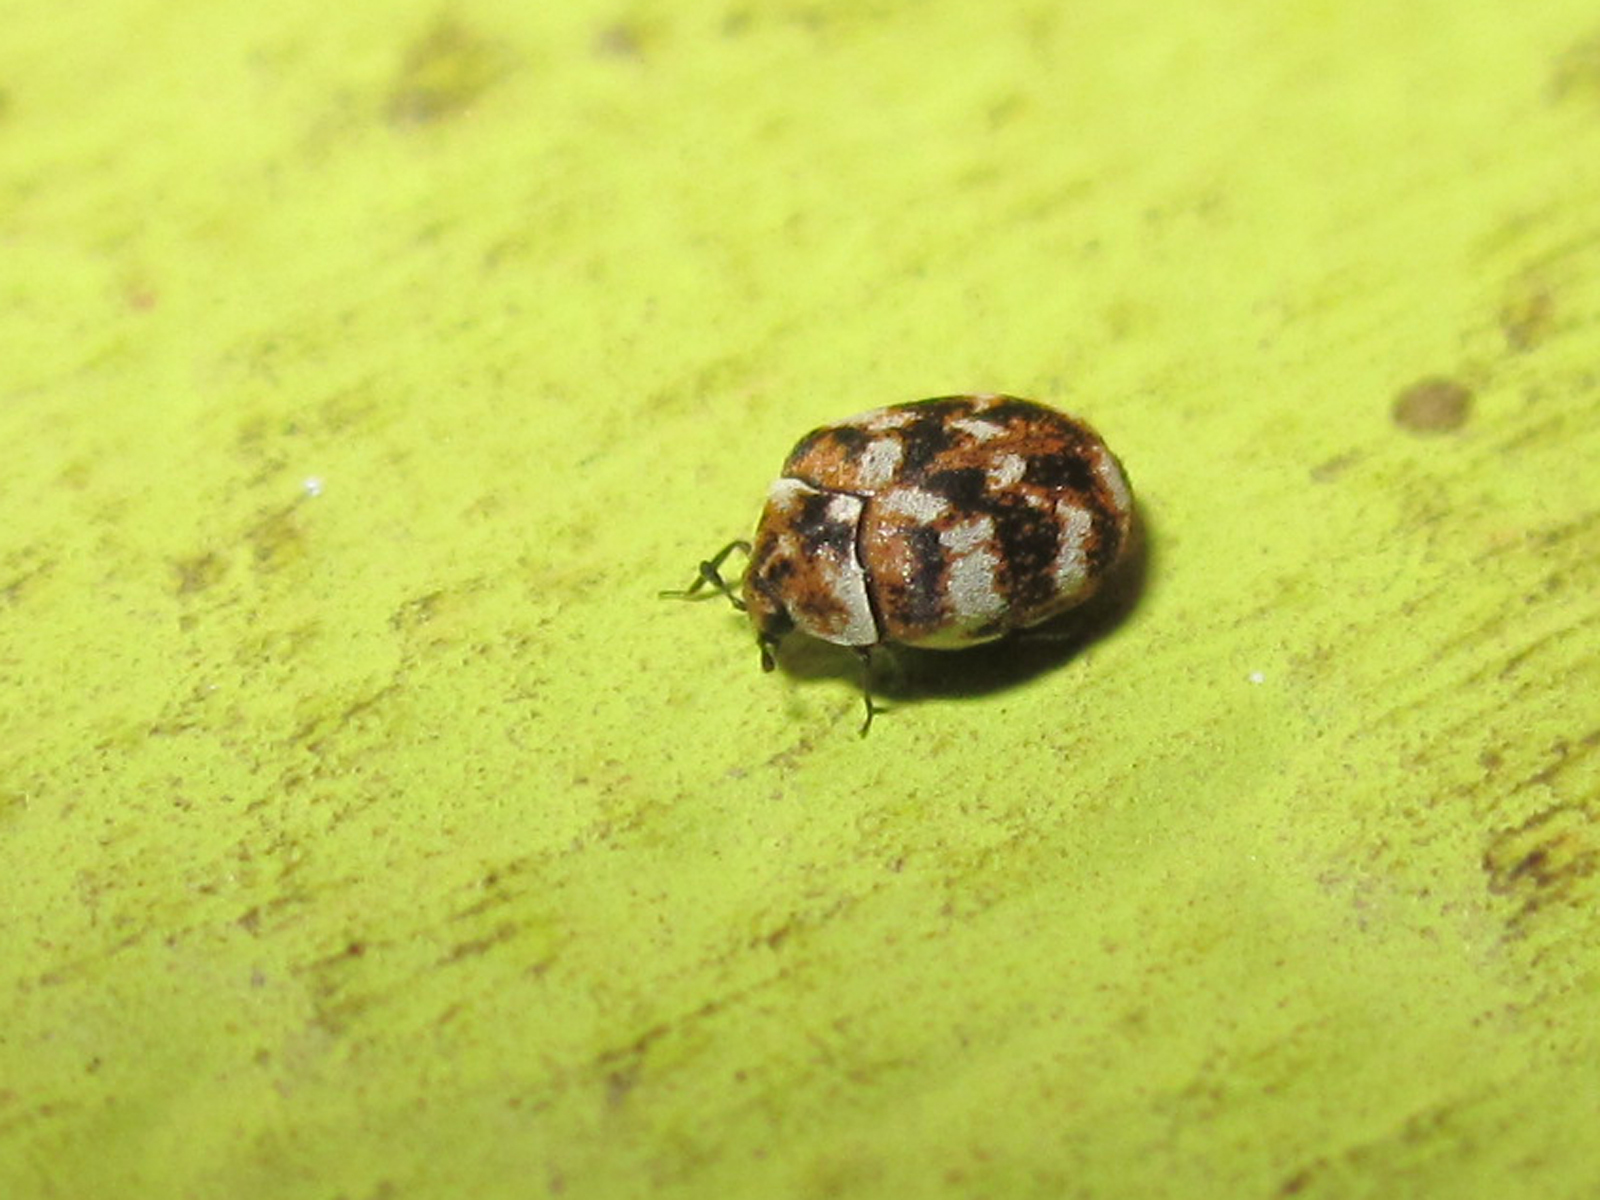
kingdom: Animalia
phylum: Arthropoda
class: Insecta
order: Coleoptera
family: Dermestidae
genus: Anthrenus
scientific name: Anthrenus verbasci
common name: Varied carpet beetle
